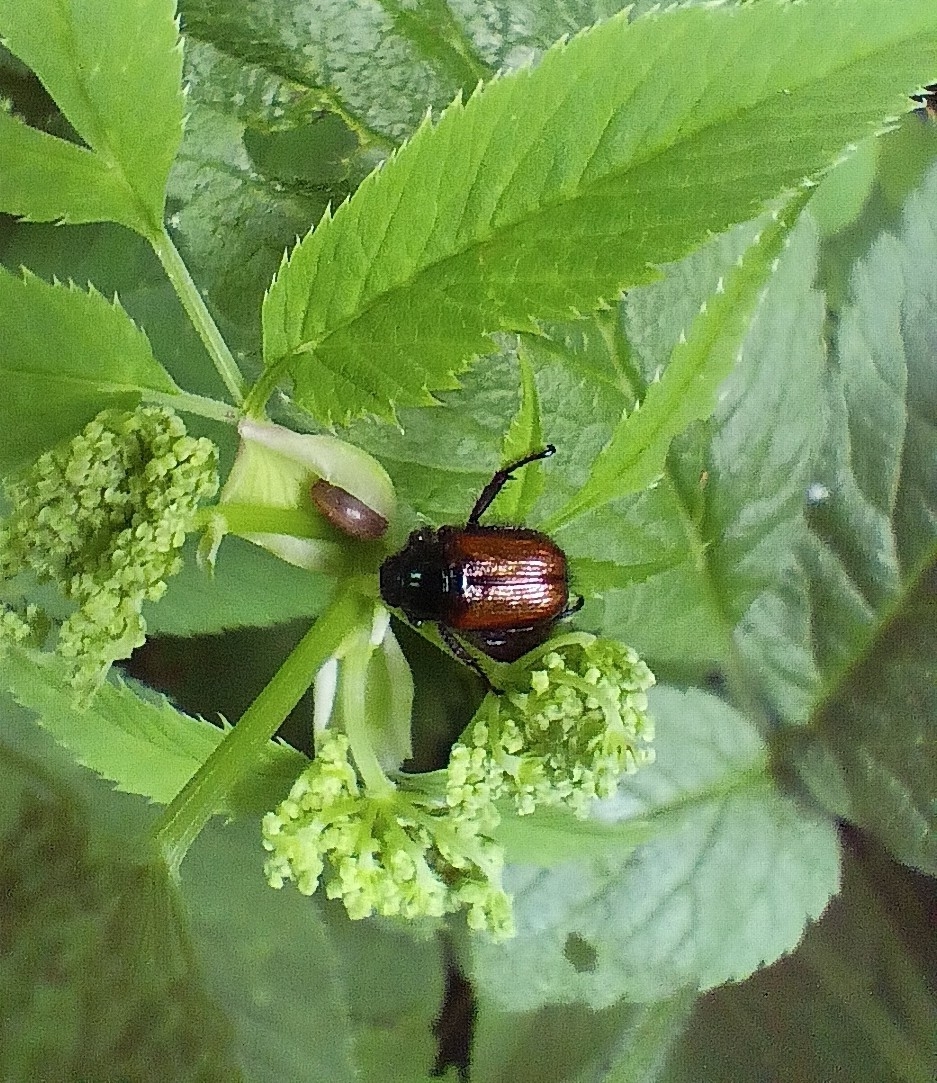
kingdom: Animalia
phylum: Arthropoda
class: Insecta
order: Coleoptera
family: Scarabaeidae
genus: Phyllopertha
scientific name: Phyllopertha horticola
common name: Garden chafer
